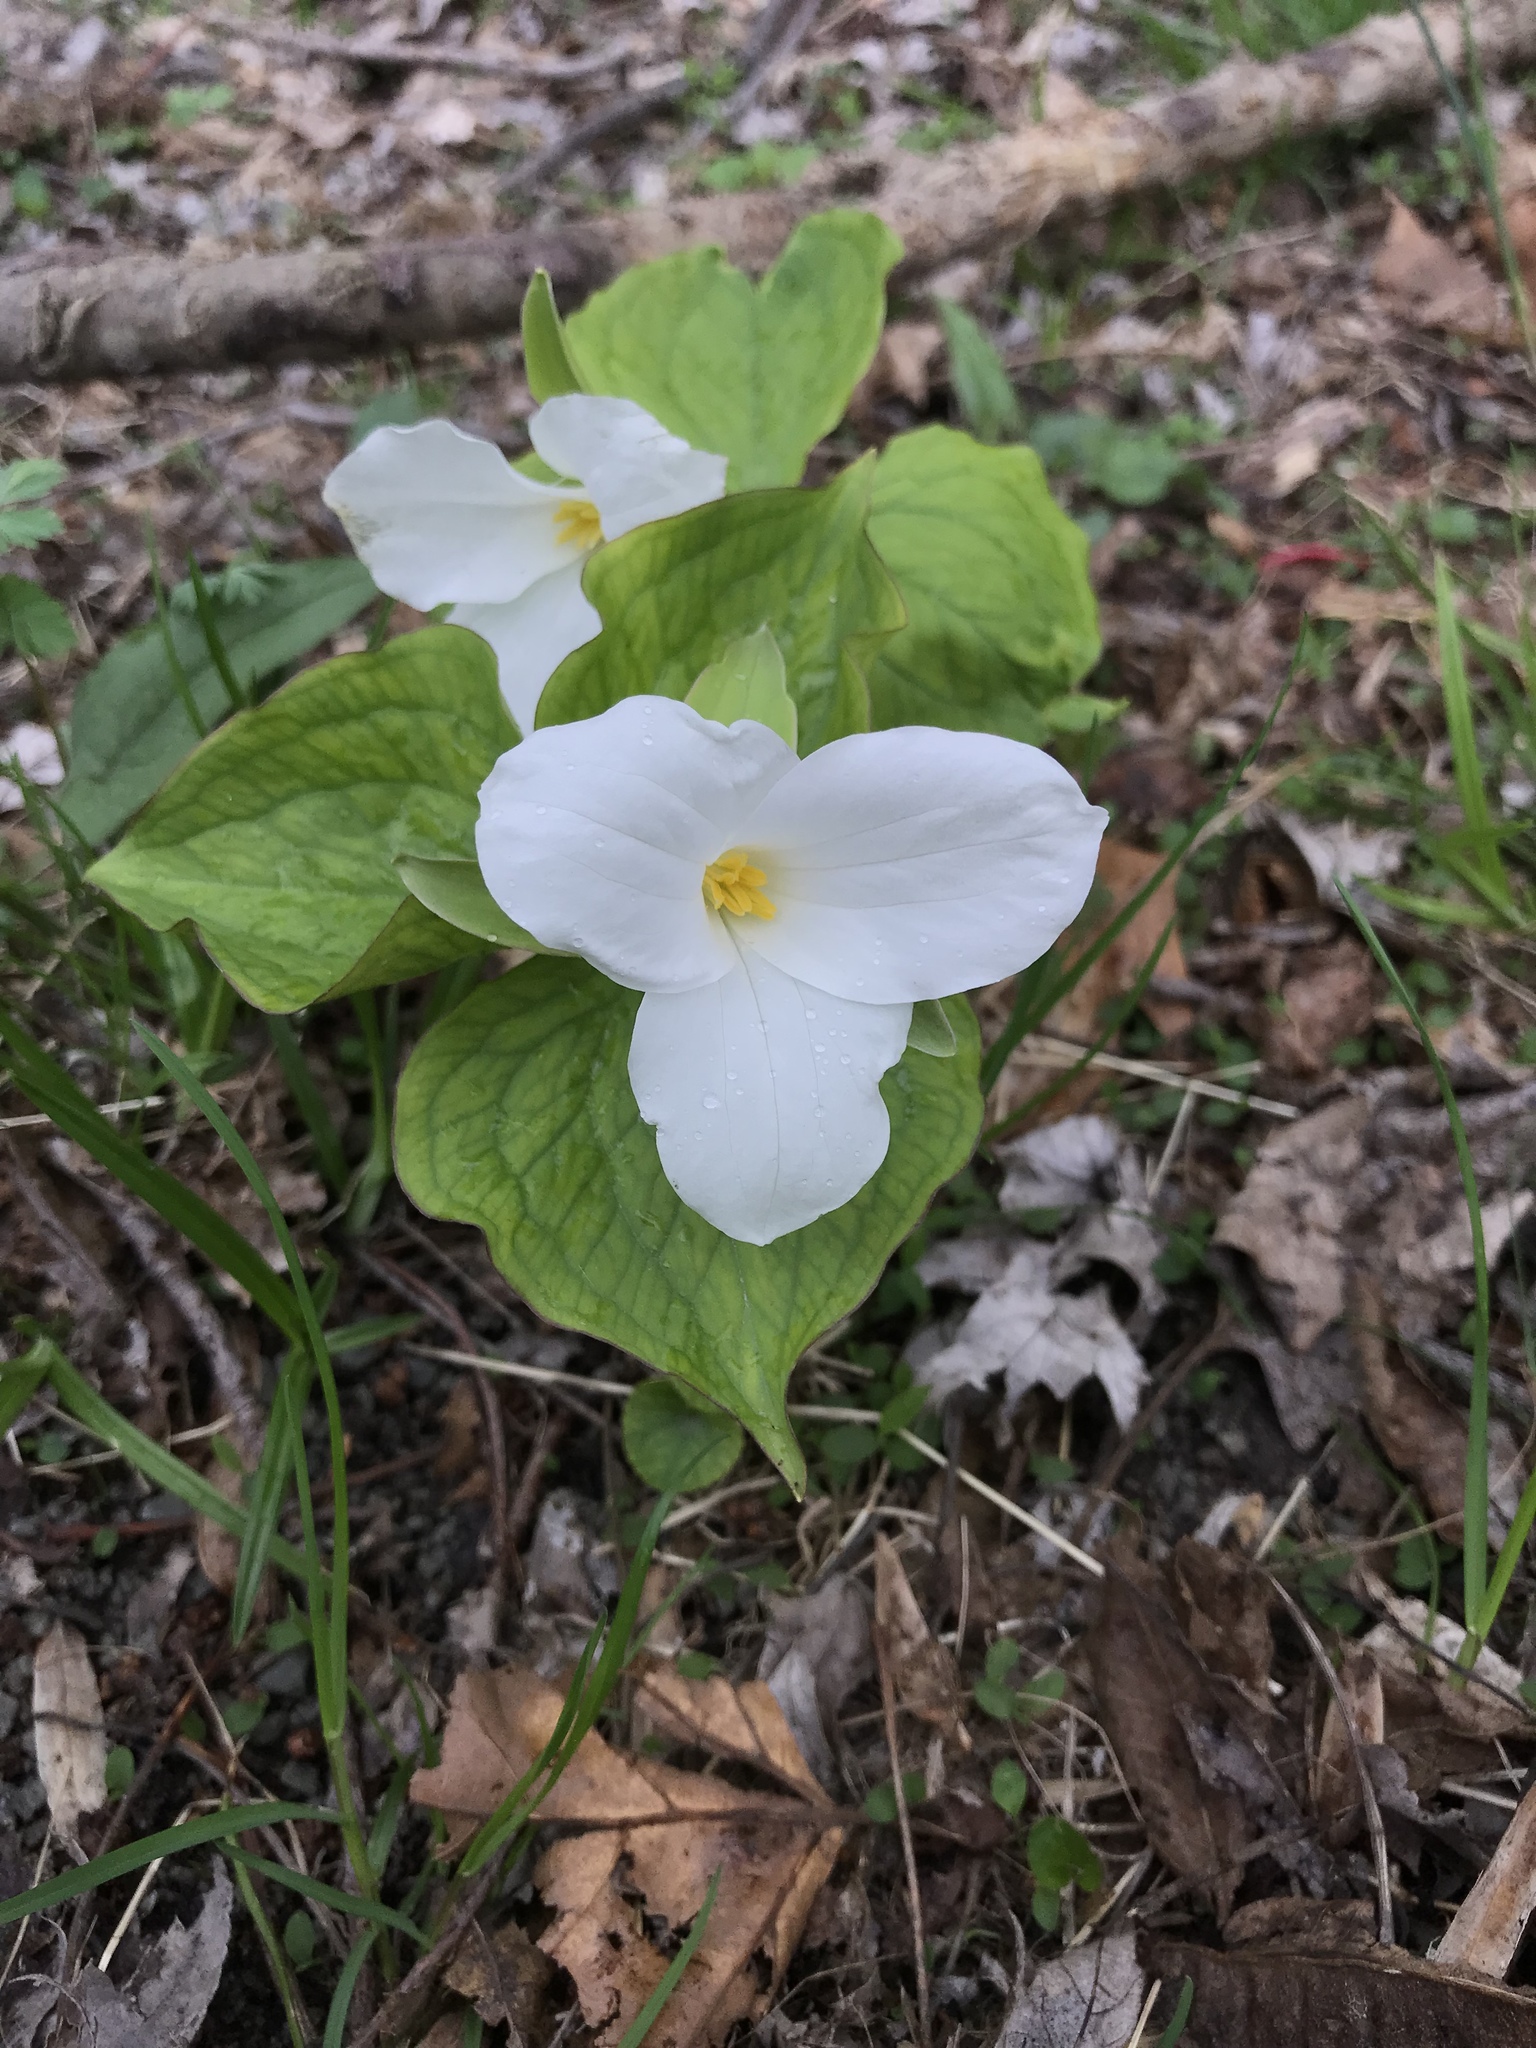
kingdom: Plantae
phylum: Tracheophyta
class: Liliopsida
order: Liliales
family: Melanthiaceae
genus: Trillium
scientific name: Trillium grandiflorum
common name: Great white trillium
